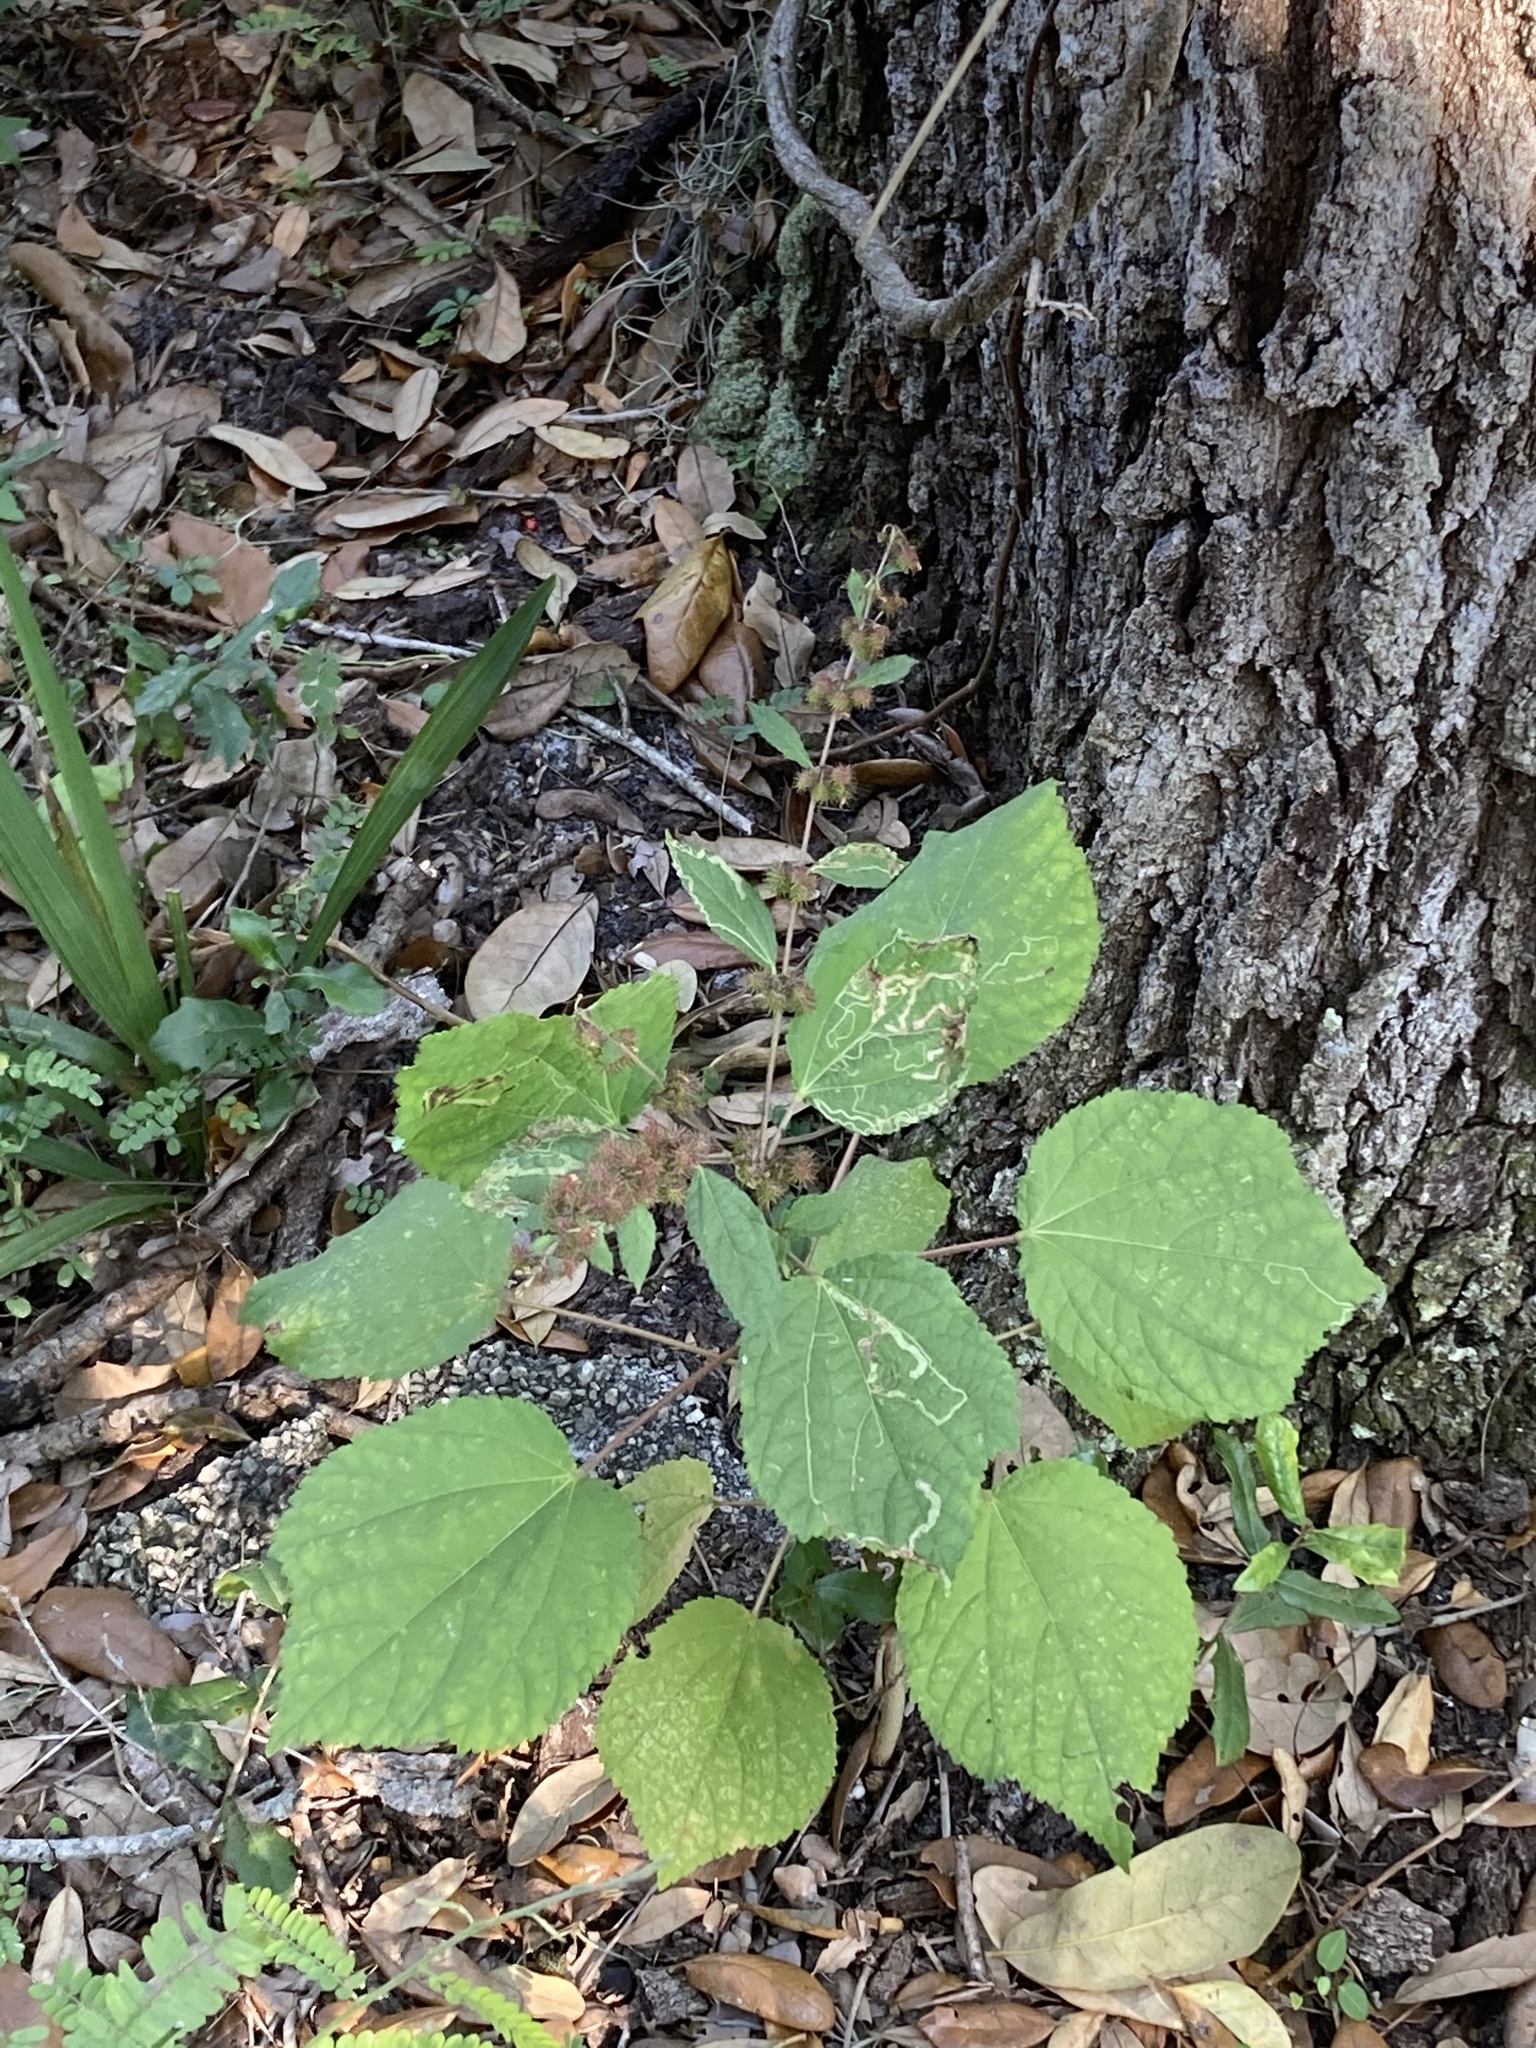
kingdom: Plantae
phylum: Tracheophyta
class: Magnoliopsida
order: Malvales
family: Malvaceae
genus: Urena
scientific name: Urena lobata
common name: Caesarweed
